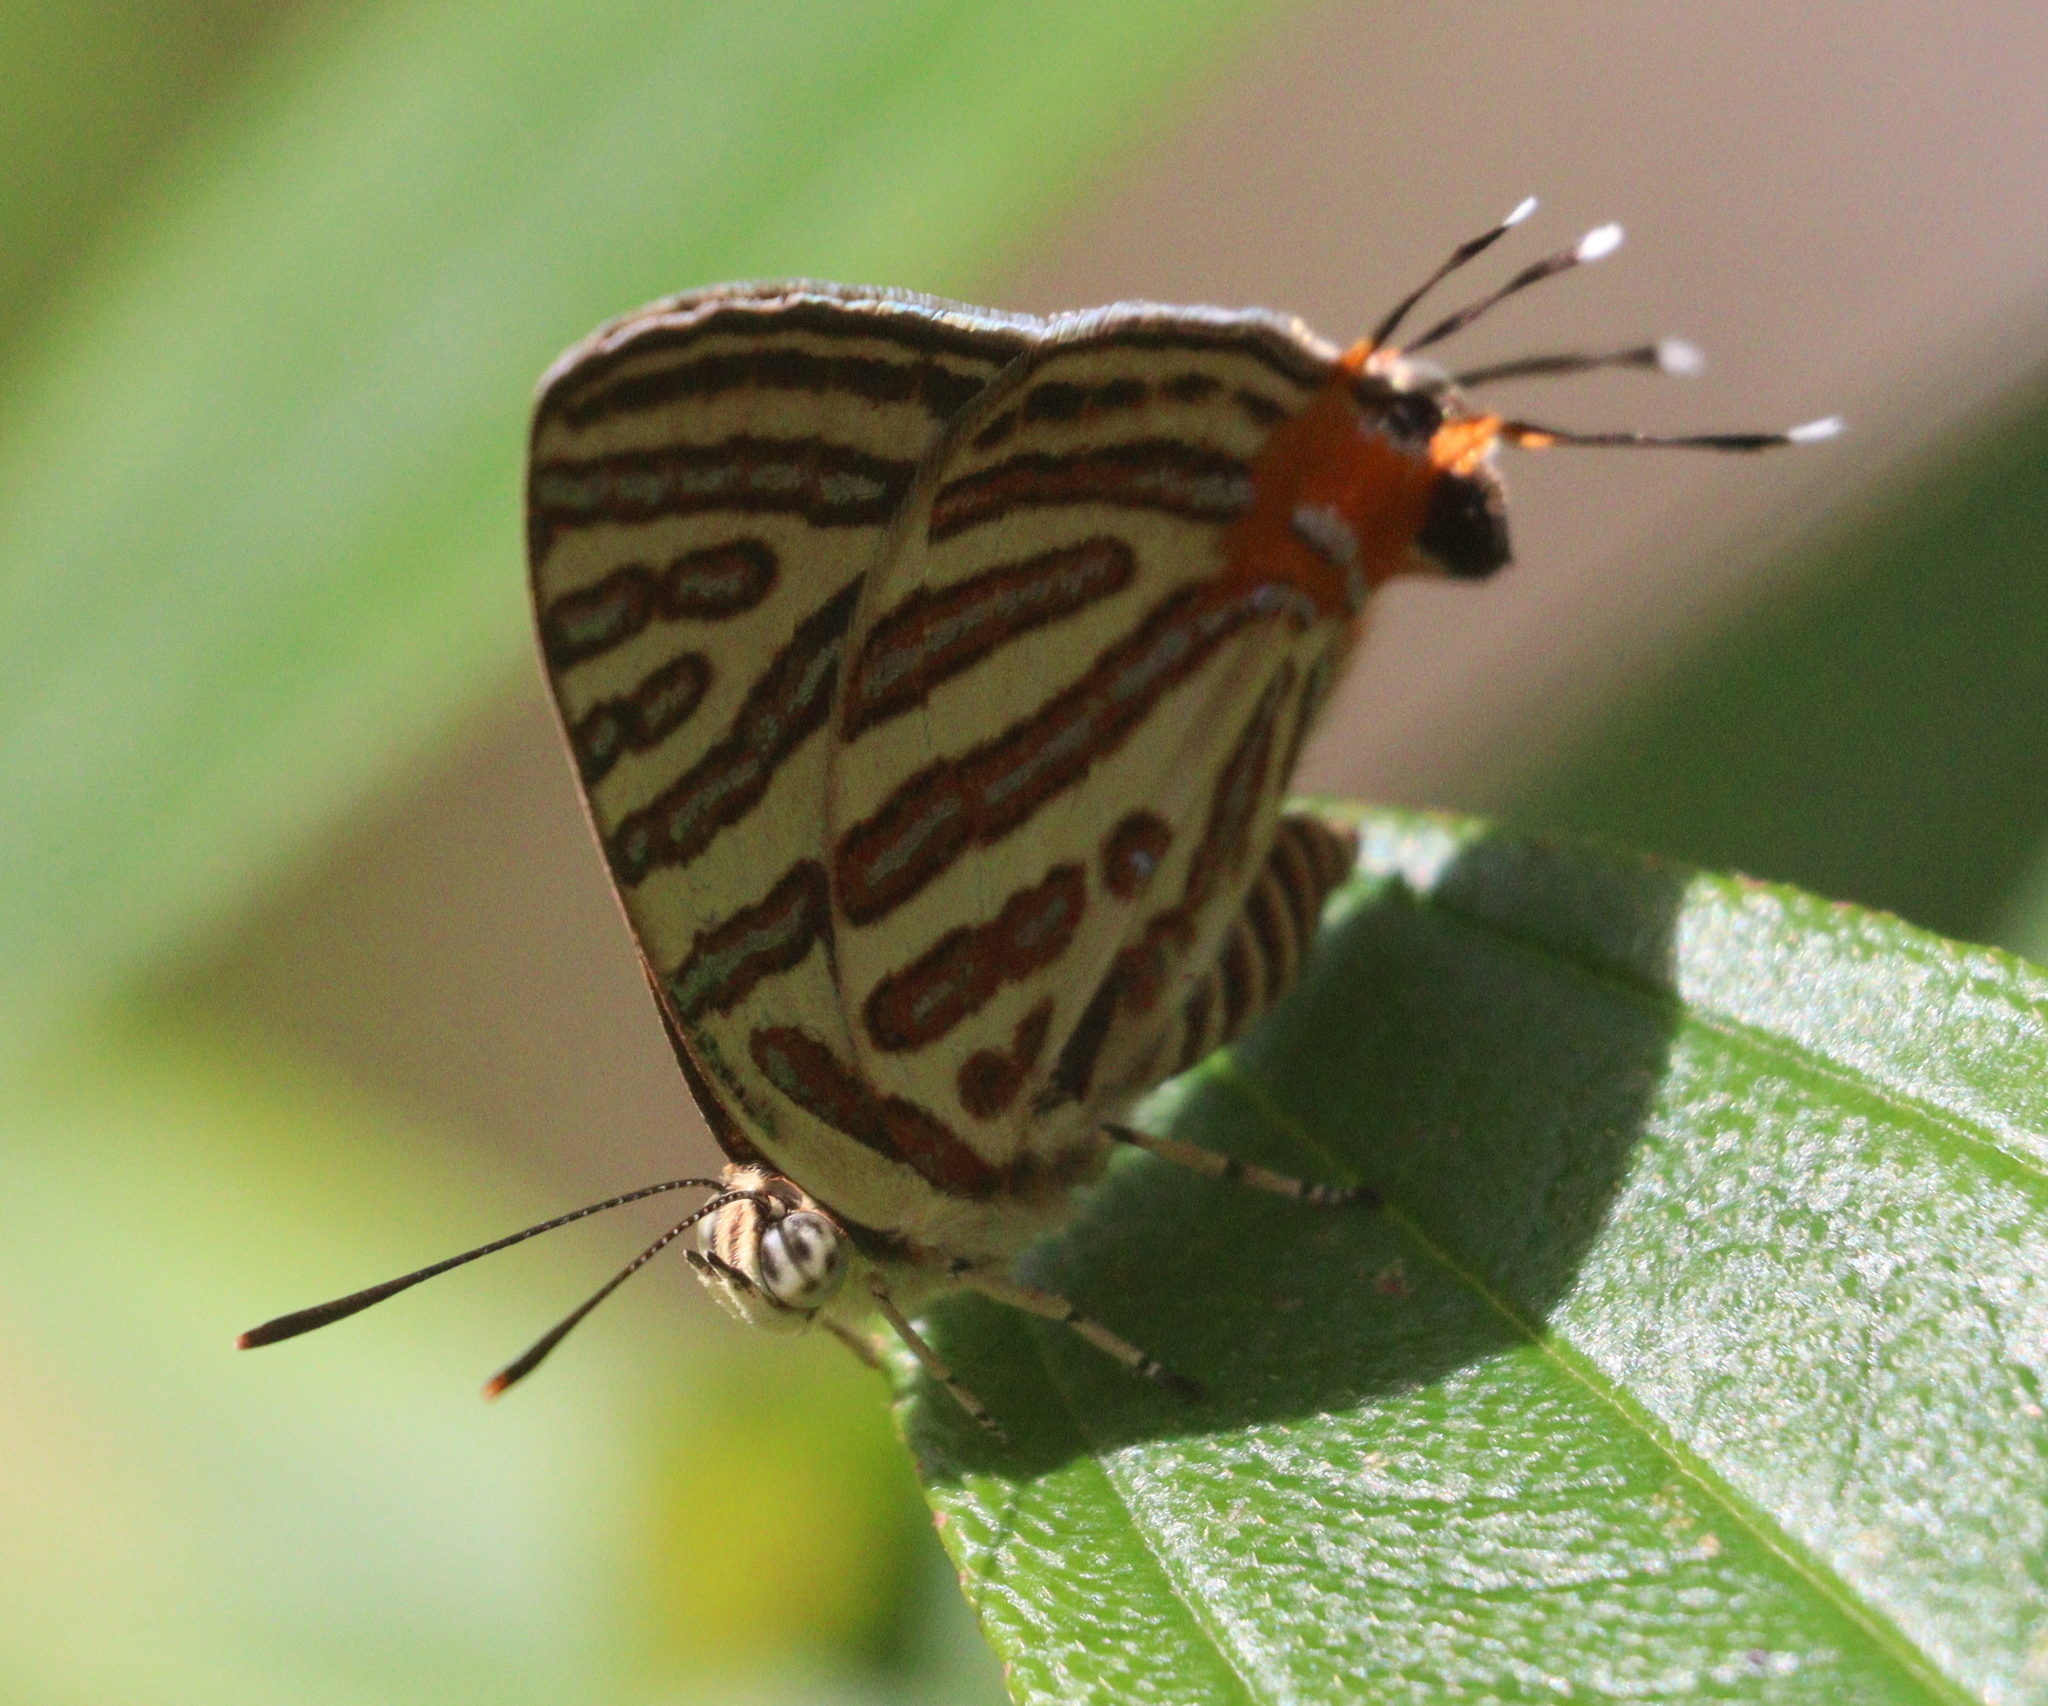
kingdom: Animalia
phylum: Arthropoda
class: Insecta
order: Lepidoptera
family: Lycaenidae
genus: Cigaritis
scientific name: Cigaritis syama
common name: Club silverline
